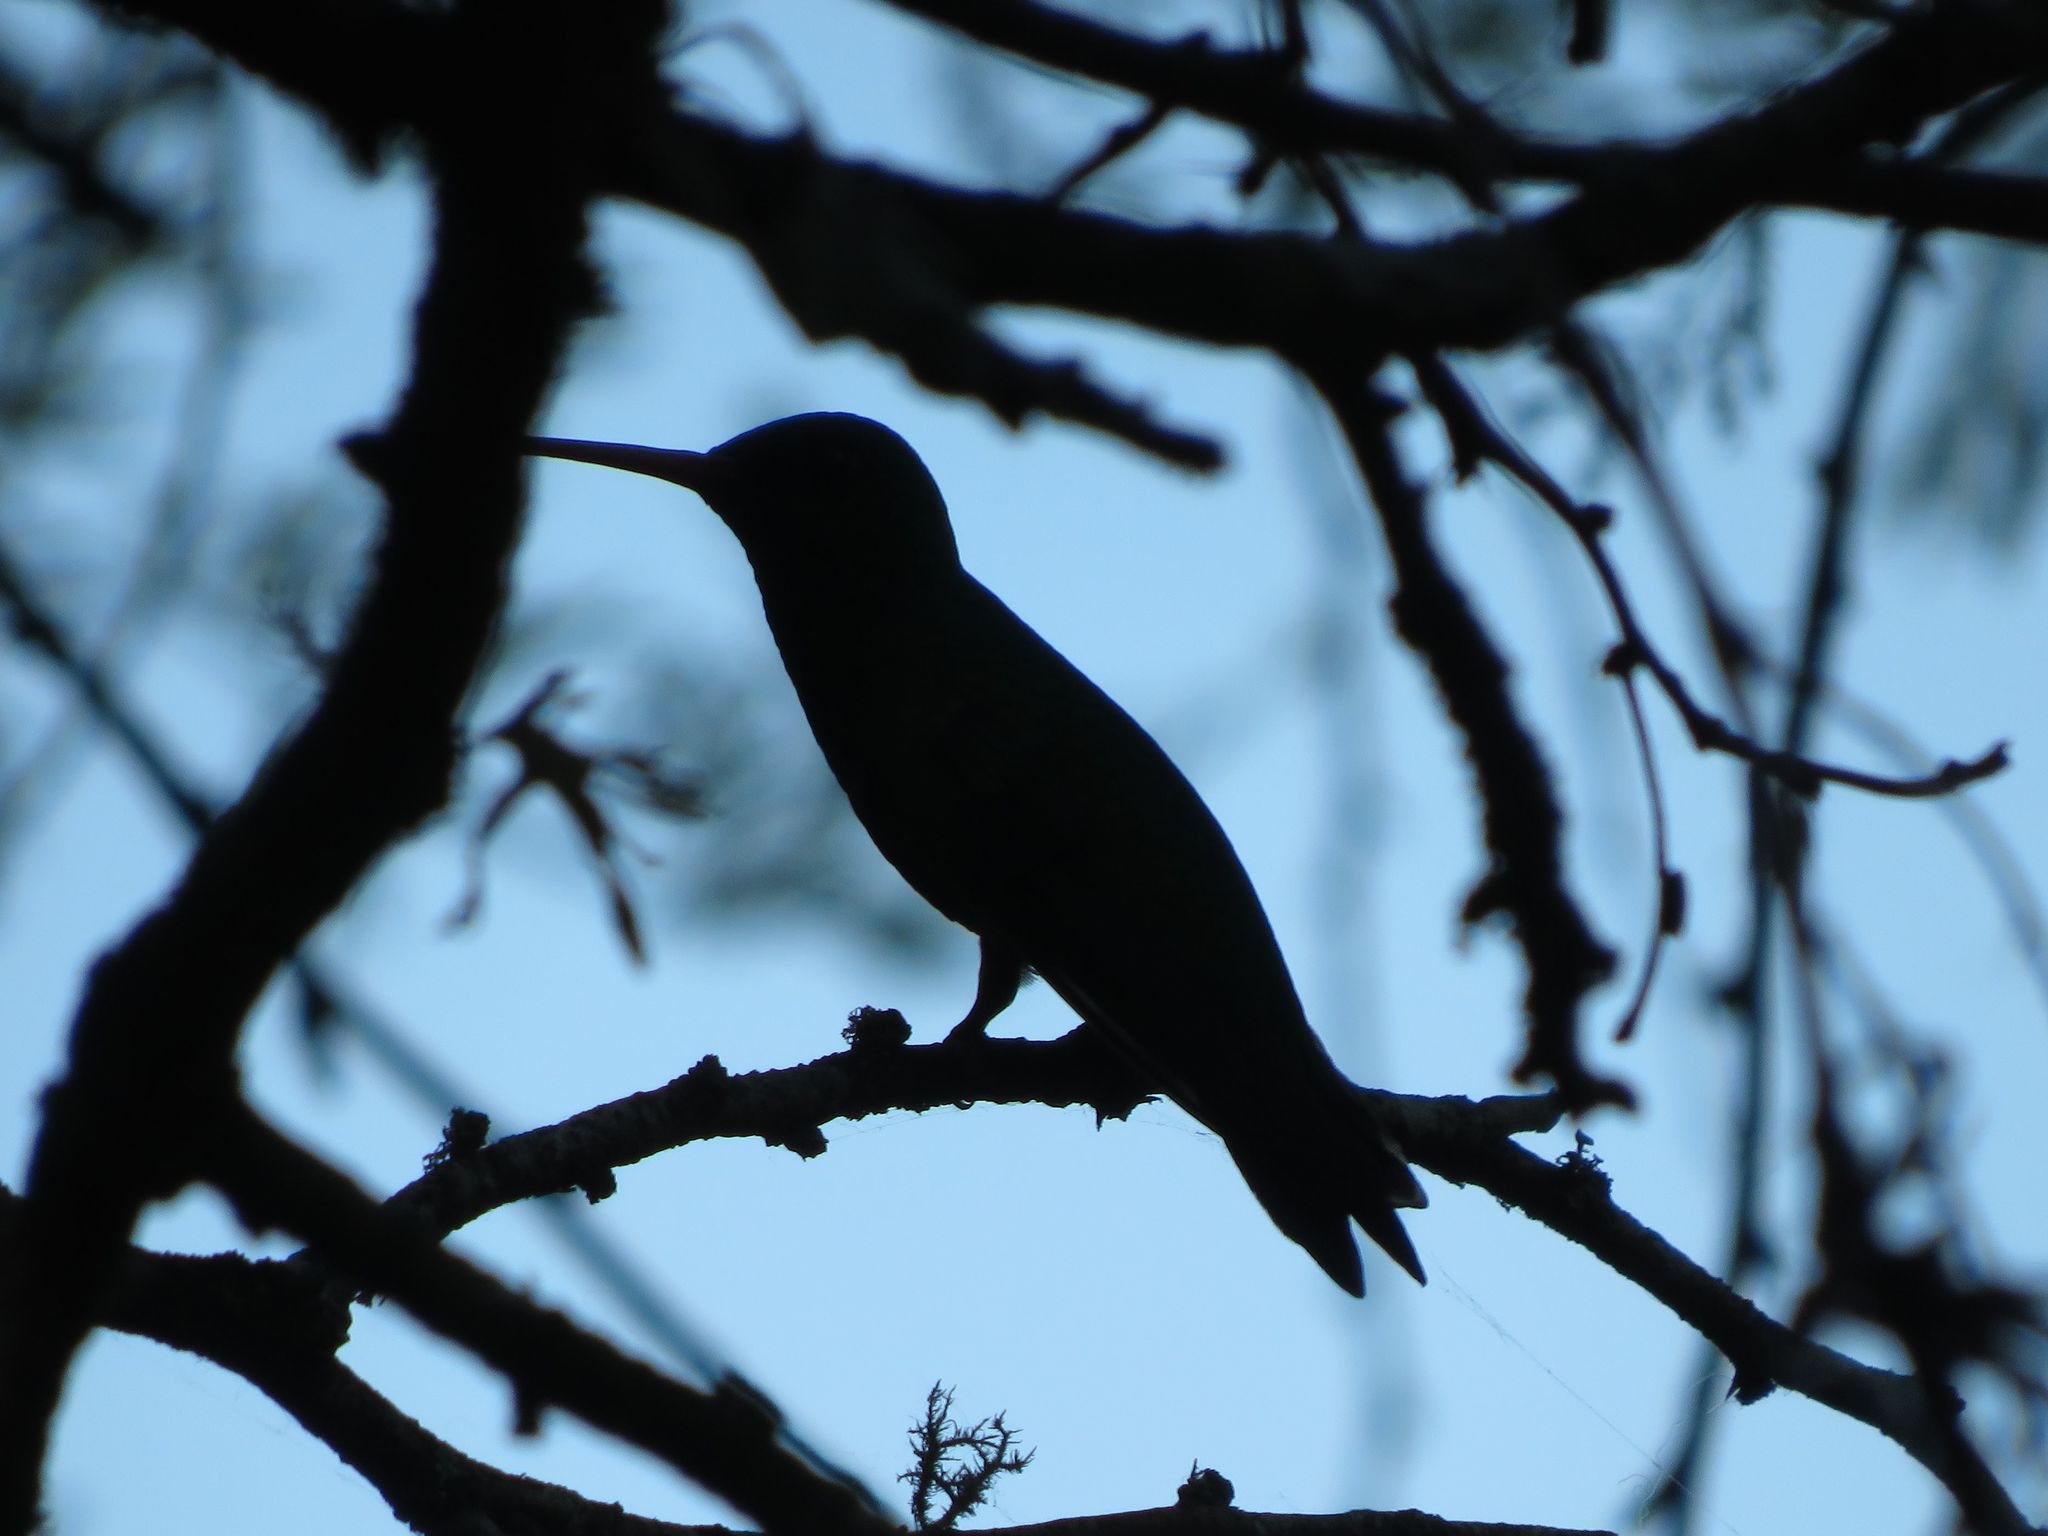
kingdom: Animalia
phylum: Chordata
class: Aves
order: Apodiformes
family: Trochilidae
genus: Chlorostilbon
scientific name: Chlorostilbon lucidus
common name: Glittering-bellied emerald
